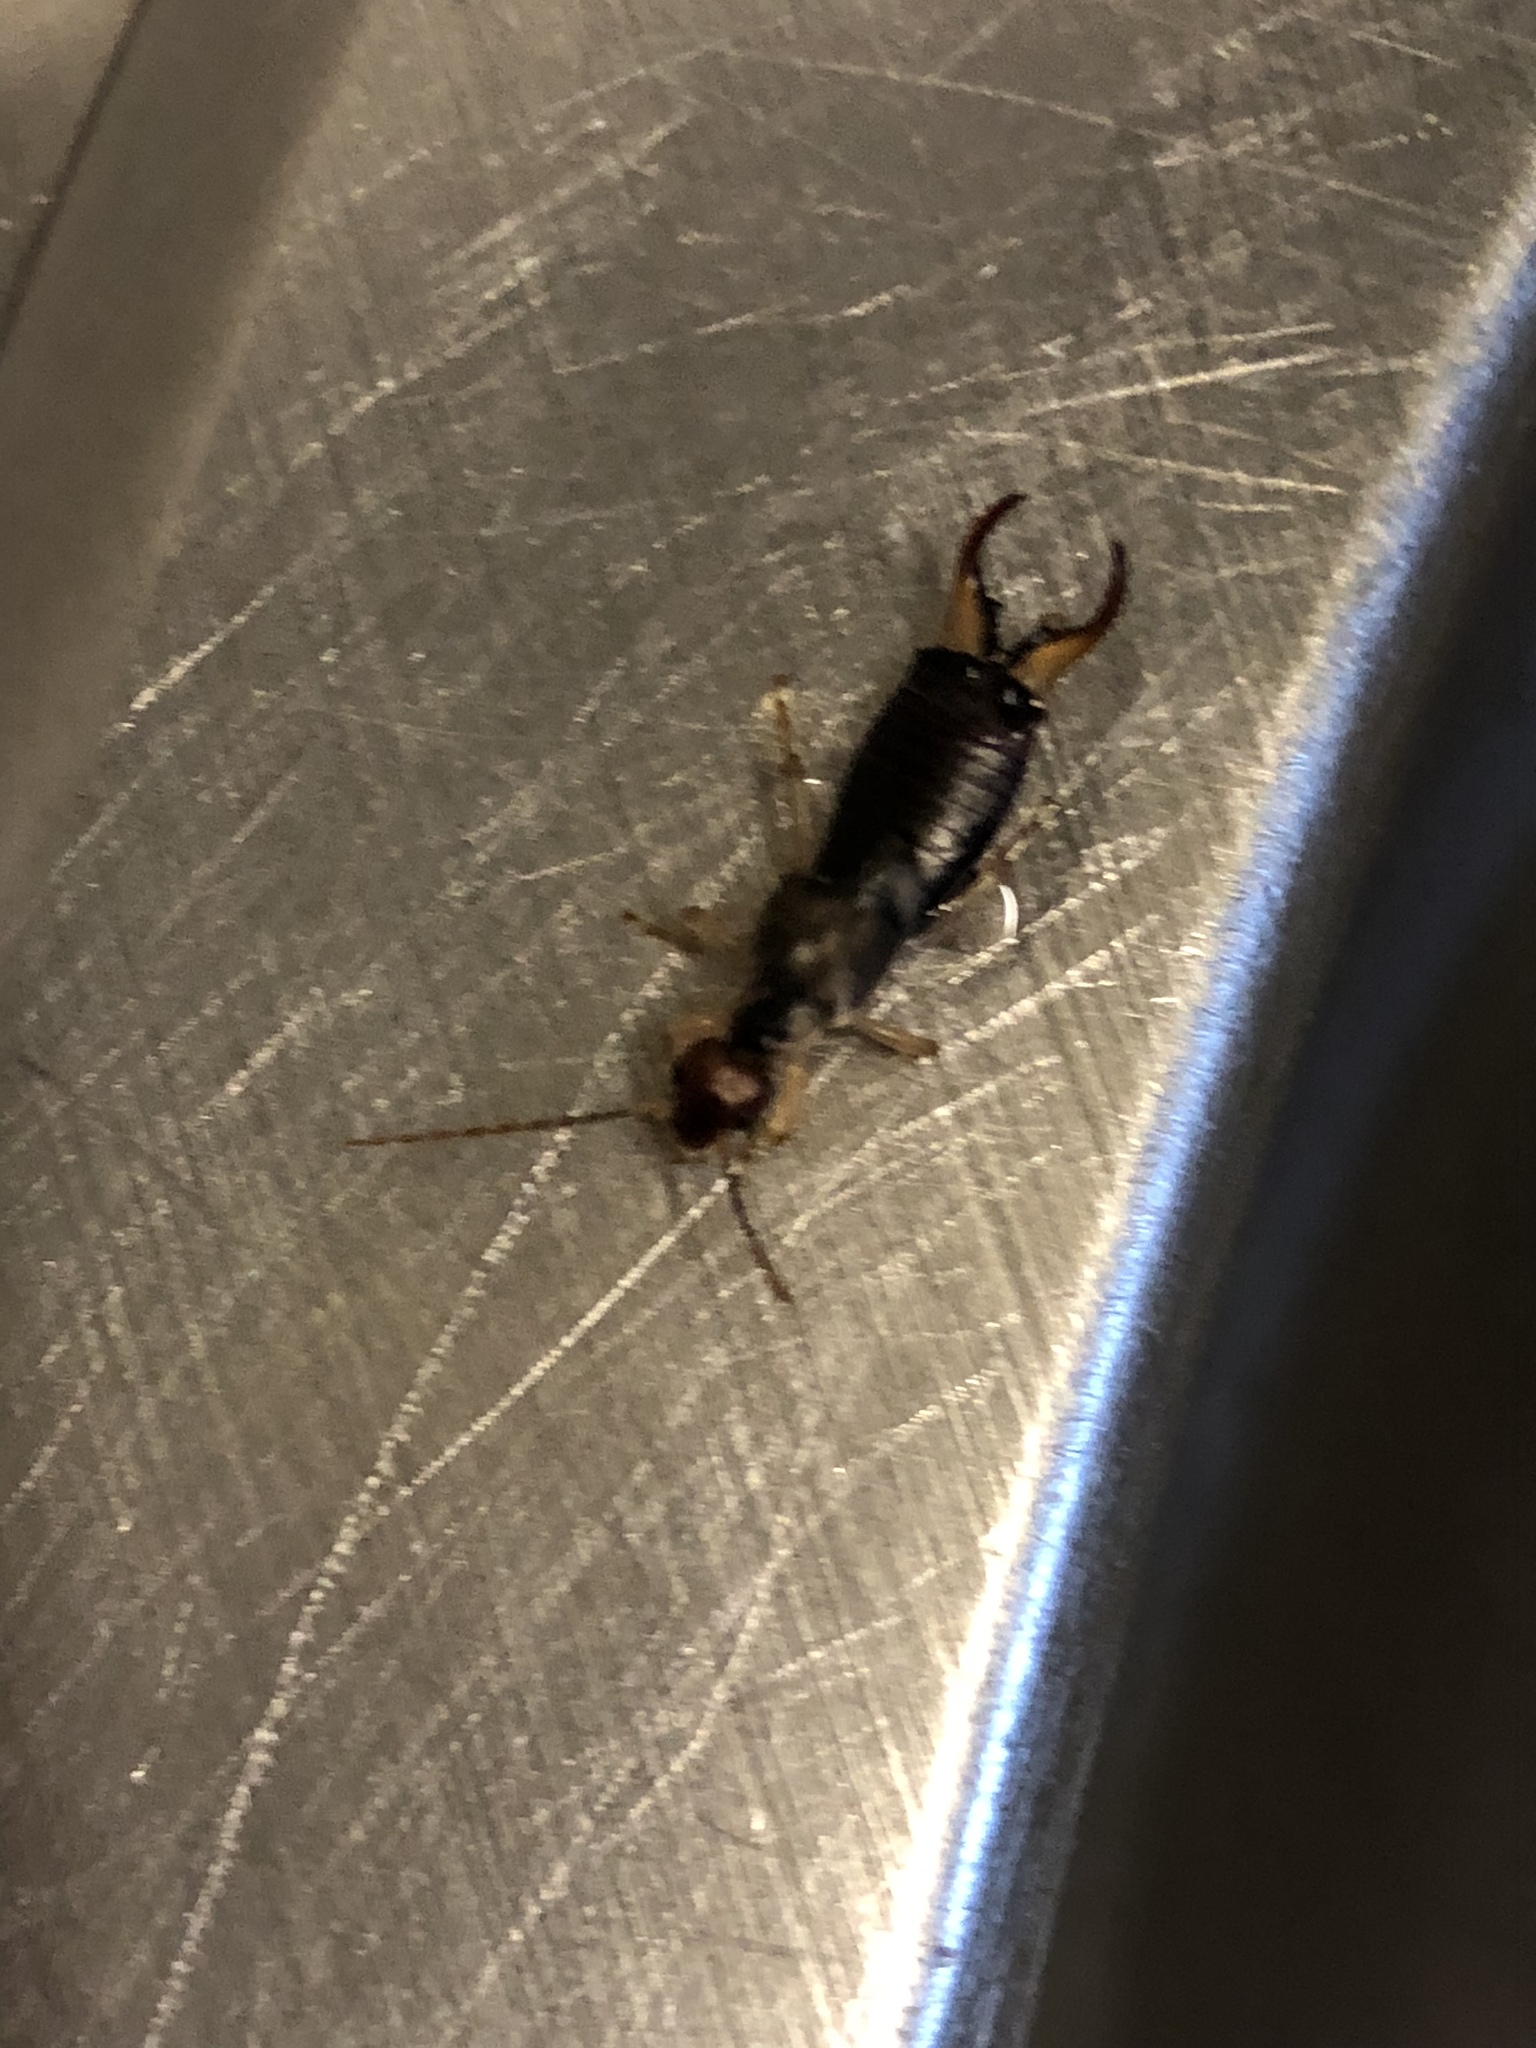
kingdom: Animalia
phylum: Arthropoda
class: Insecta
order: Dermaptera
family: Forficulidae
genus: Forficula
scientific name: Forficula
